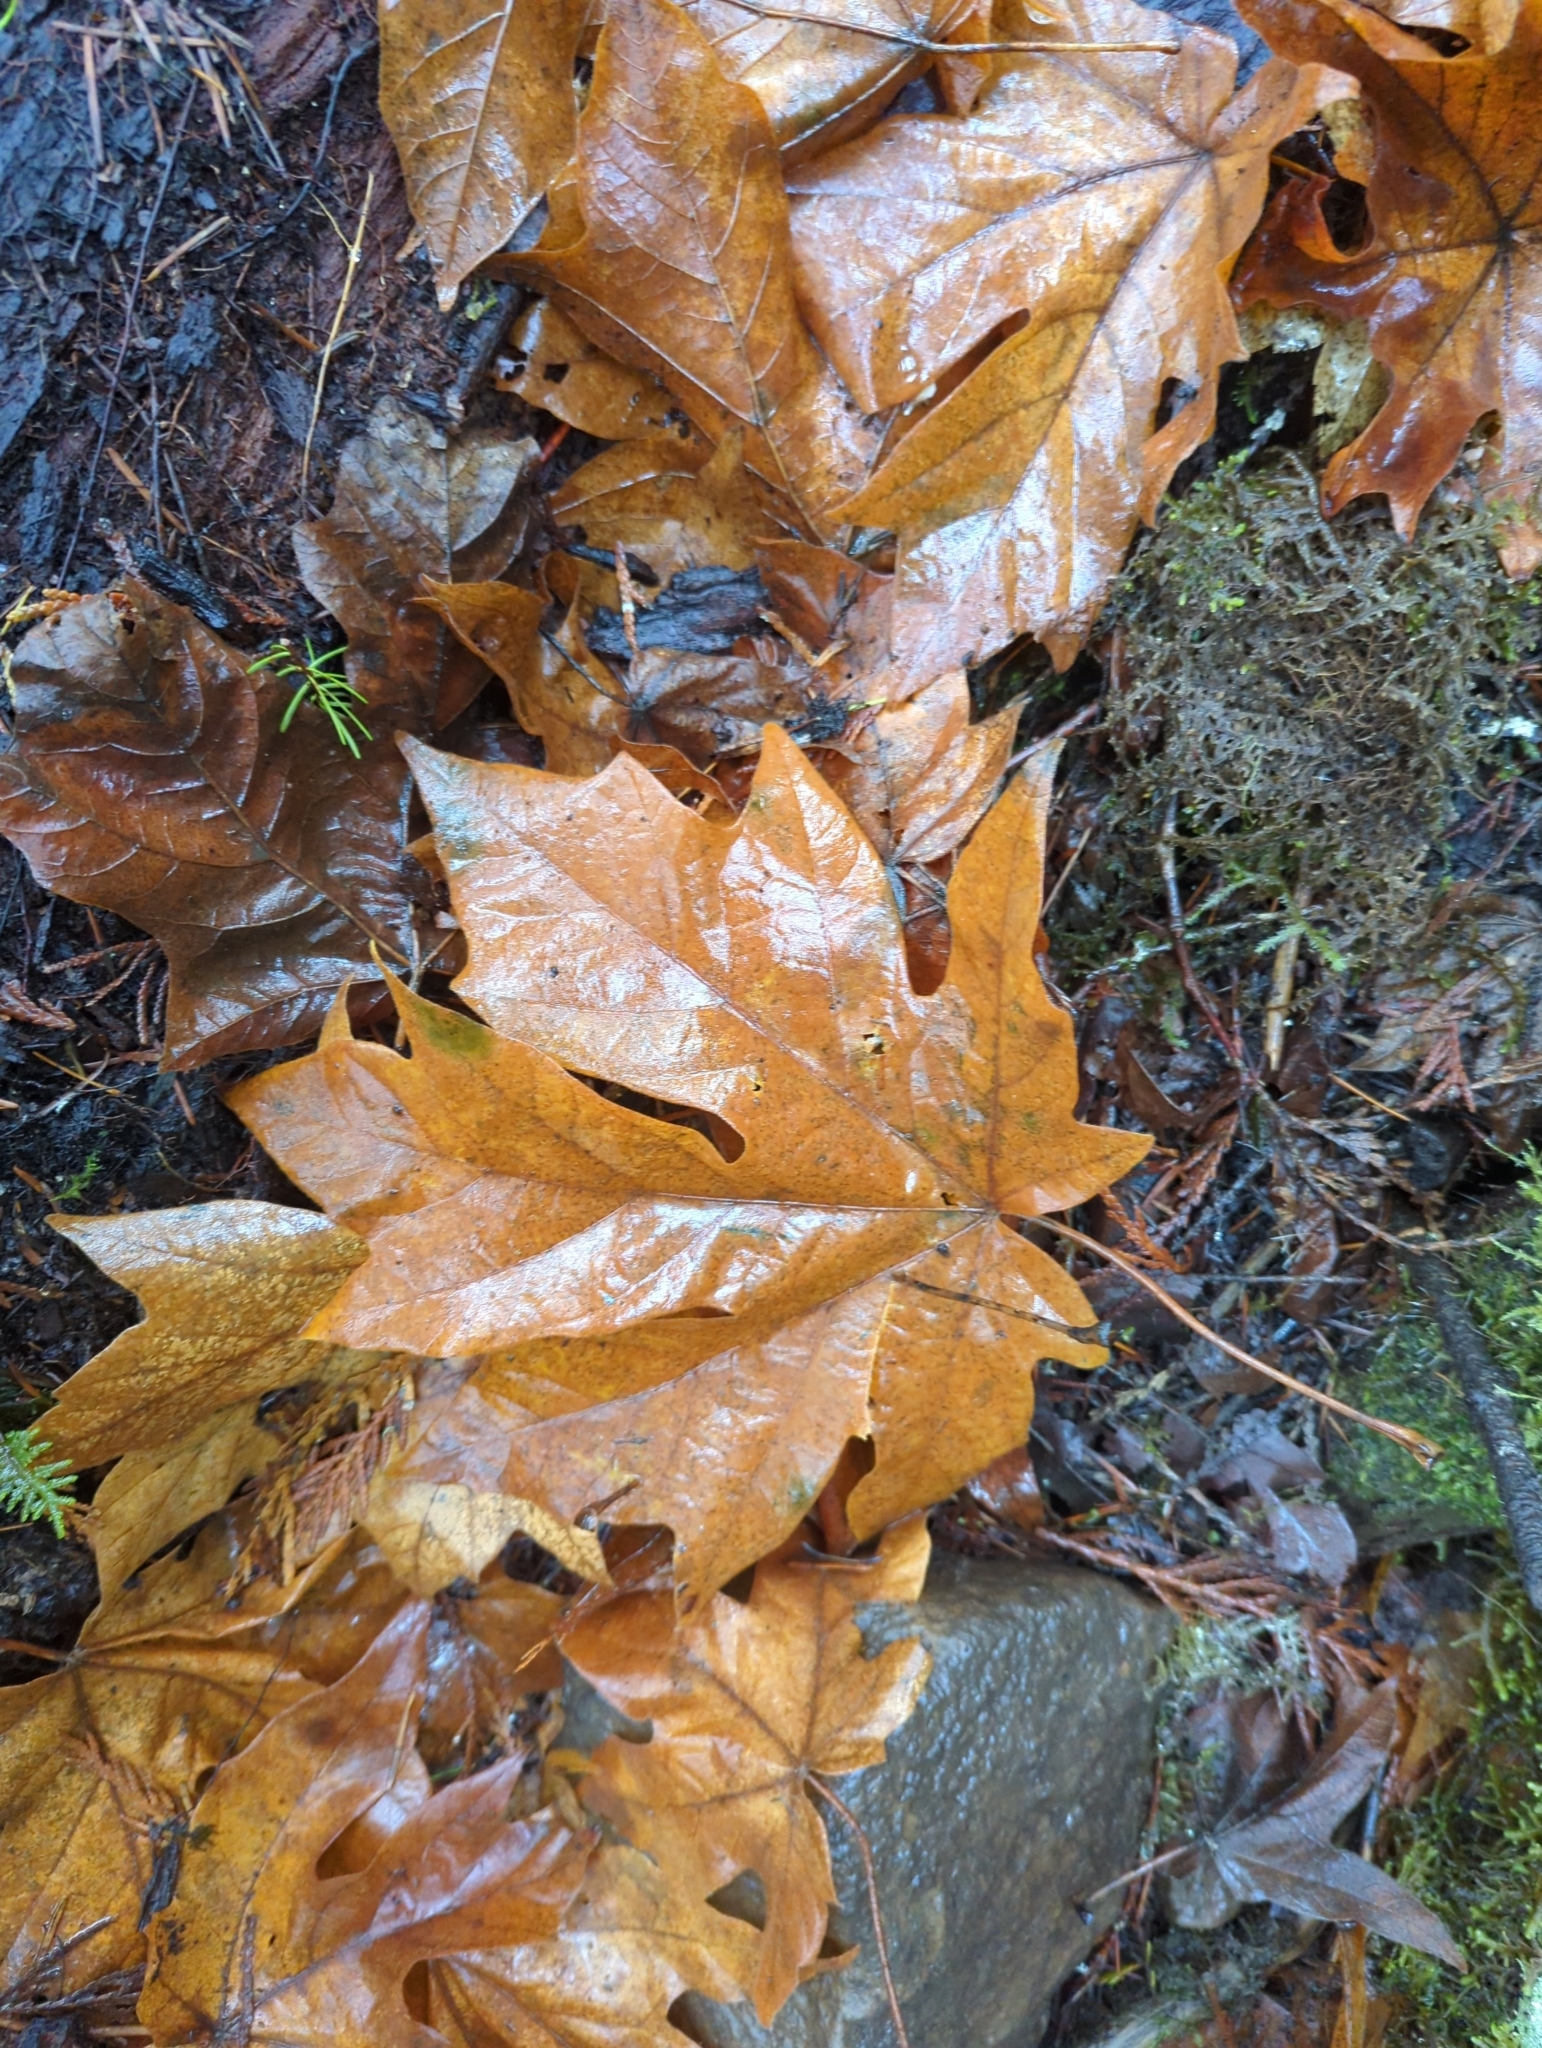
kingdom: Plantae
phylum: Tracheophyta
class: Magnoliopsida
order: Sapindales
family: Sapindaceae
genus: Acer
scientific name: Acer macrophyllum
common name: Oregon maple
